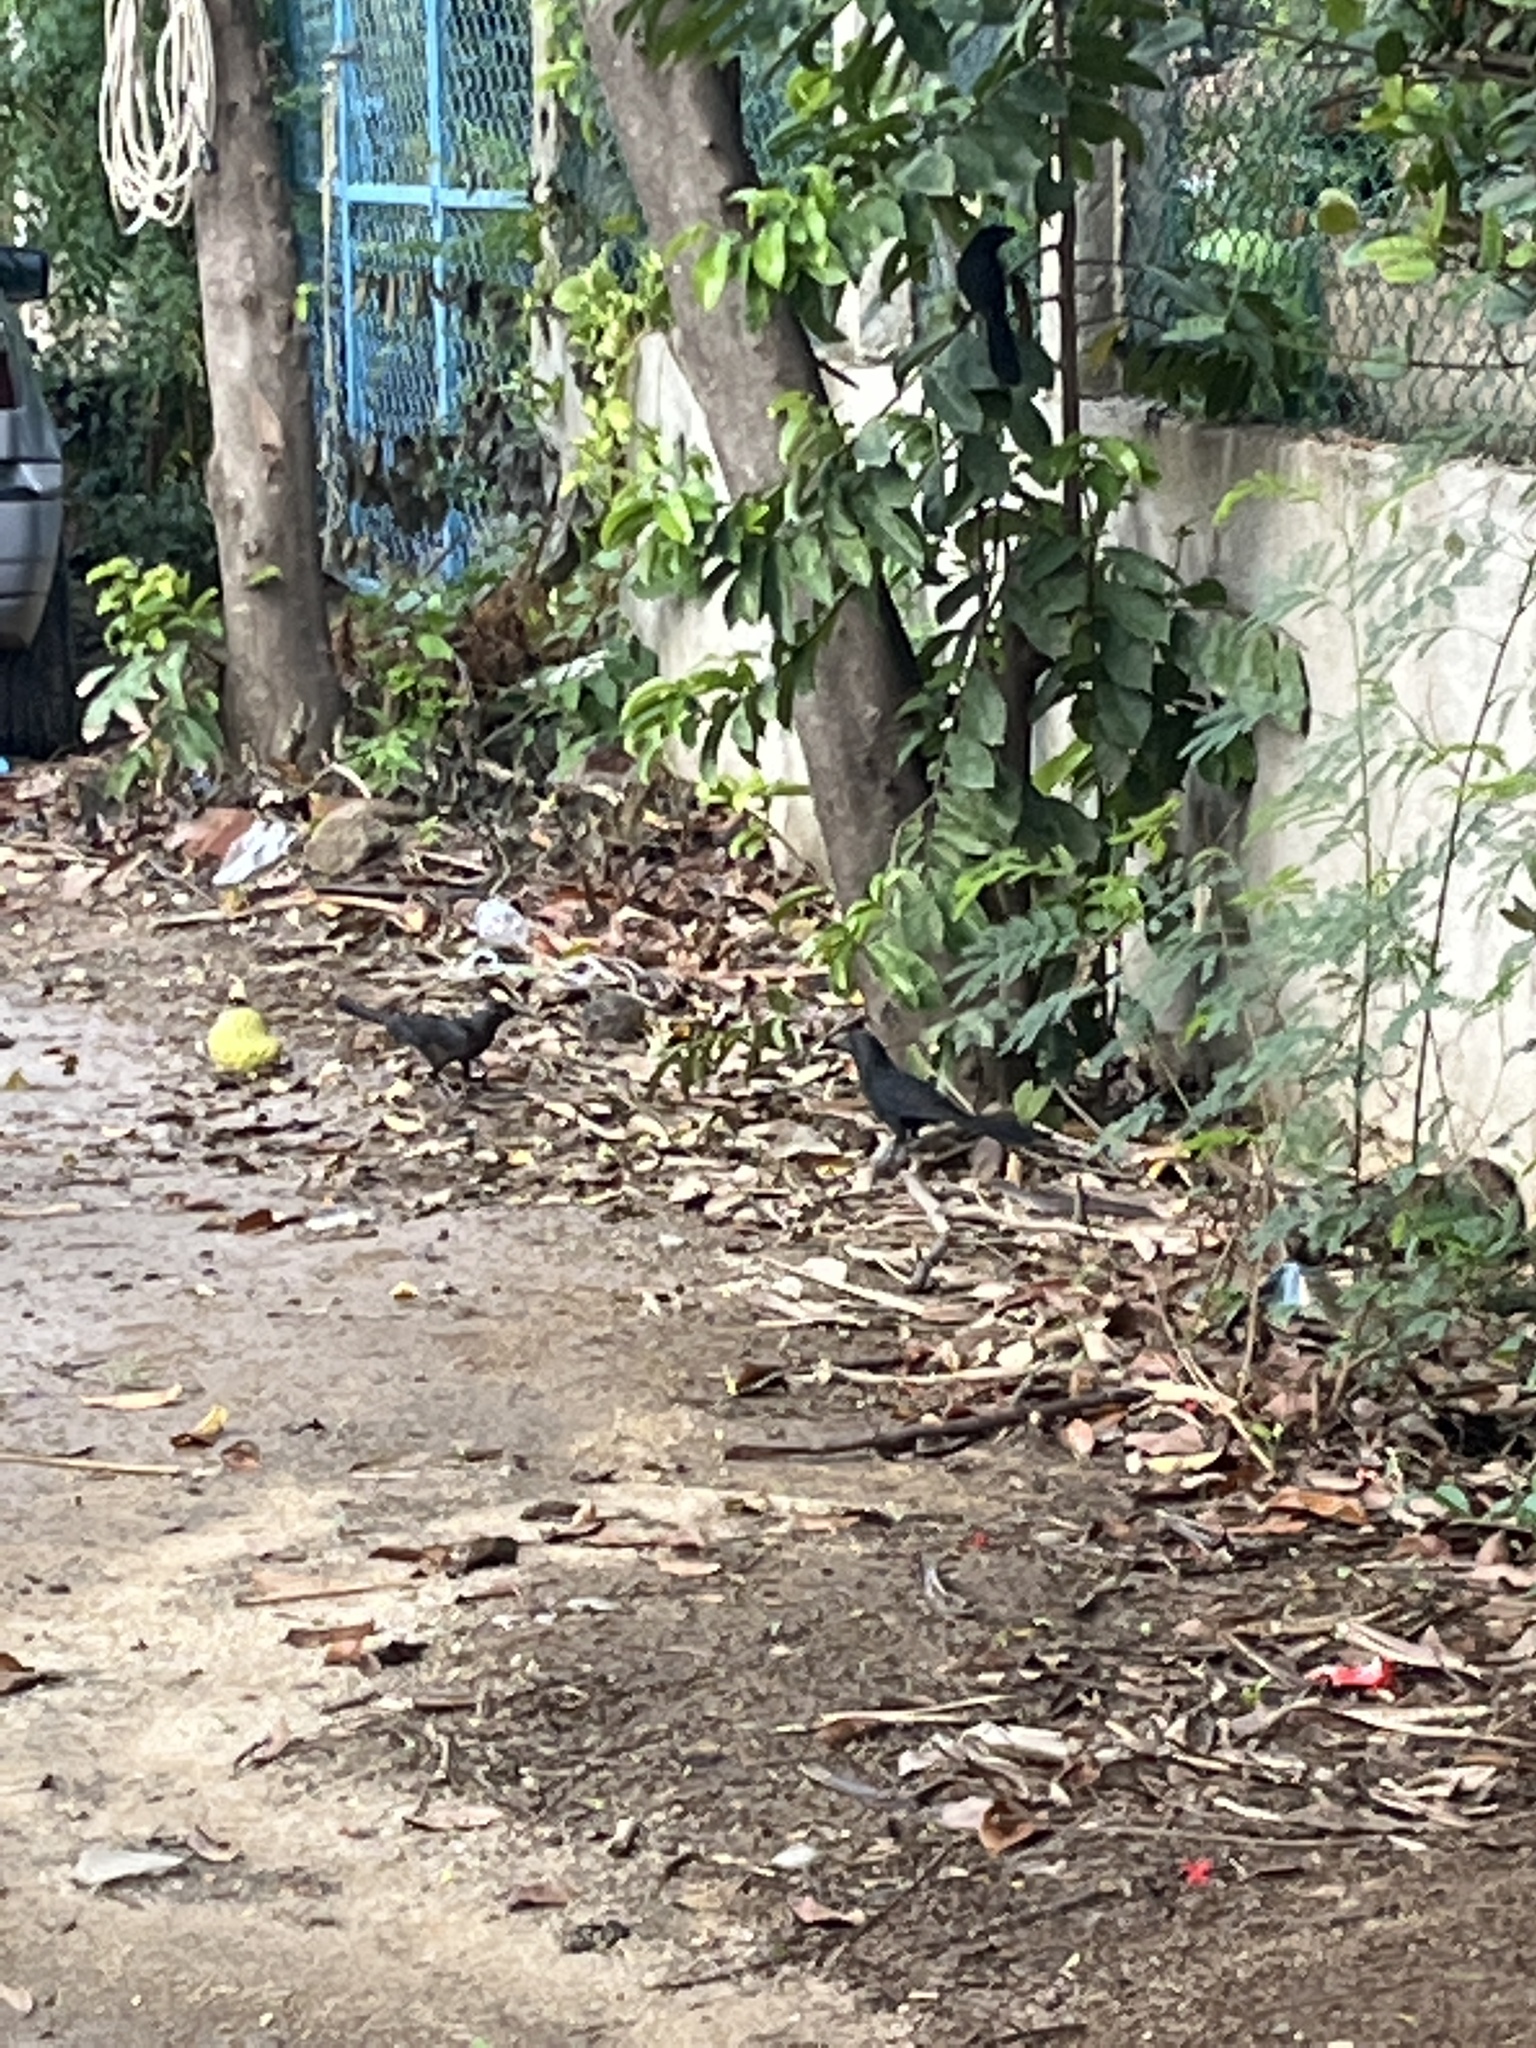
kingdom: Animalia
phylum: Chordata
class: Aves
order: Passeriformes
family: Icteridae
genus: Quiscalus
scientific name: Quiscalus mexicanus
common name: Great-tailed grackle
